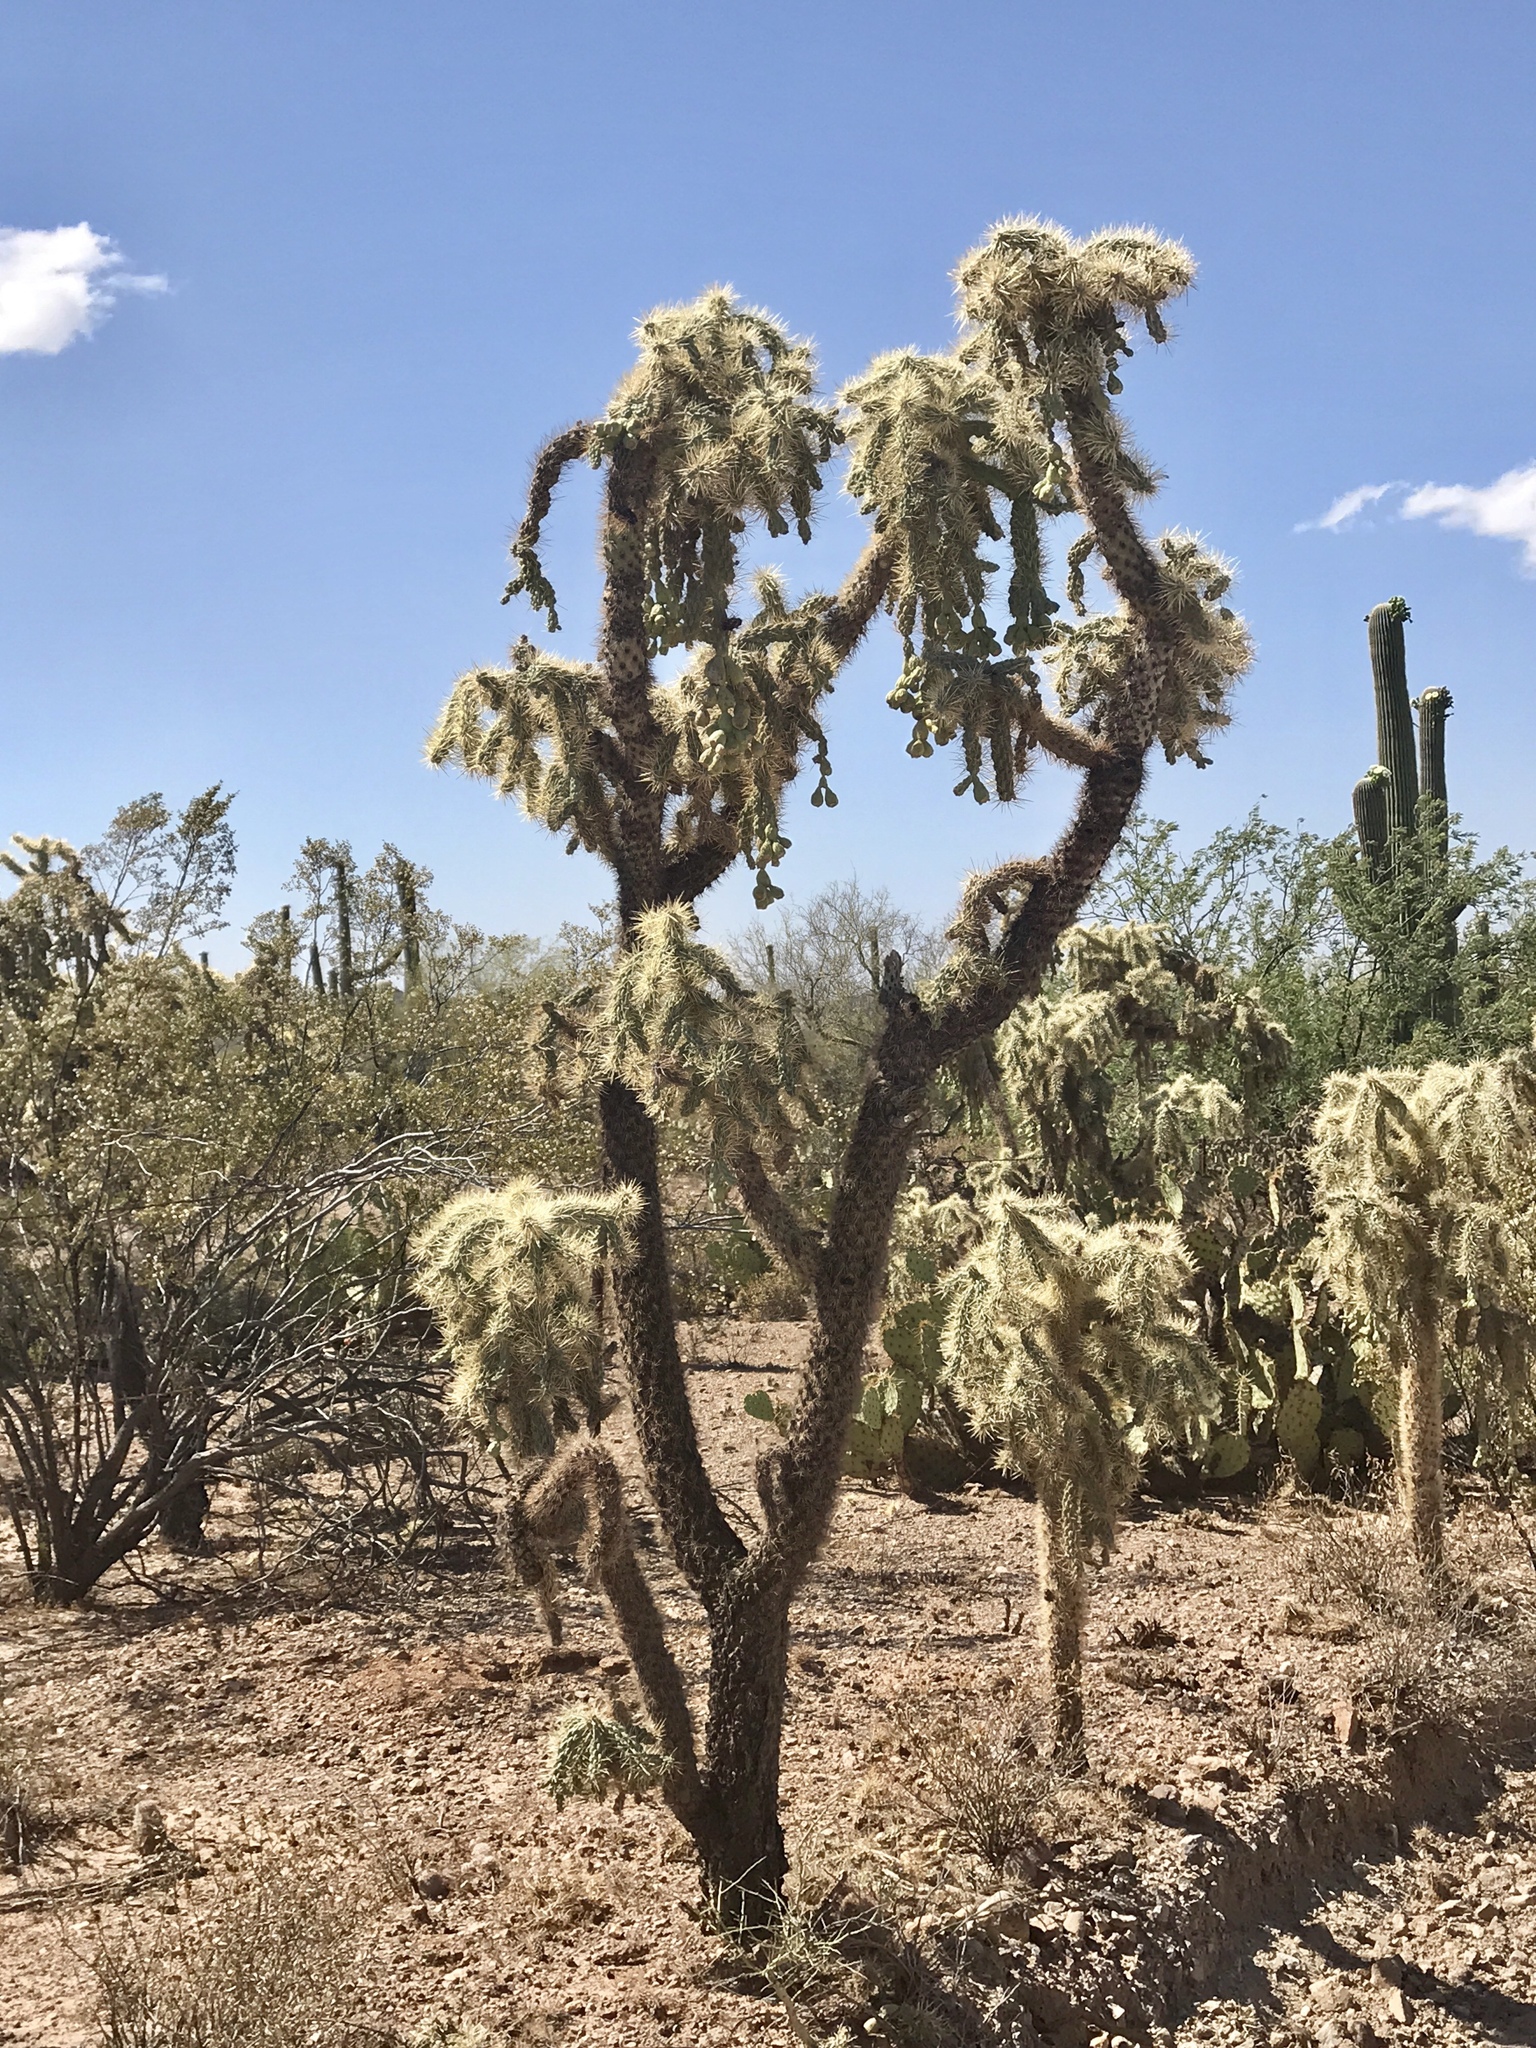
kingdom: Plantae
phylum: Tracheophyta
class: Magnoliopsida
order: Caryophyllales
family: Cactaceae
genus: Cylindropuntia
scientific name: Cylindropuntia fulgida
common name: Jumping cholla
